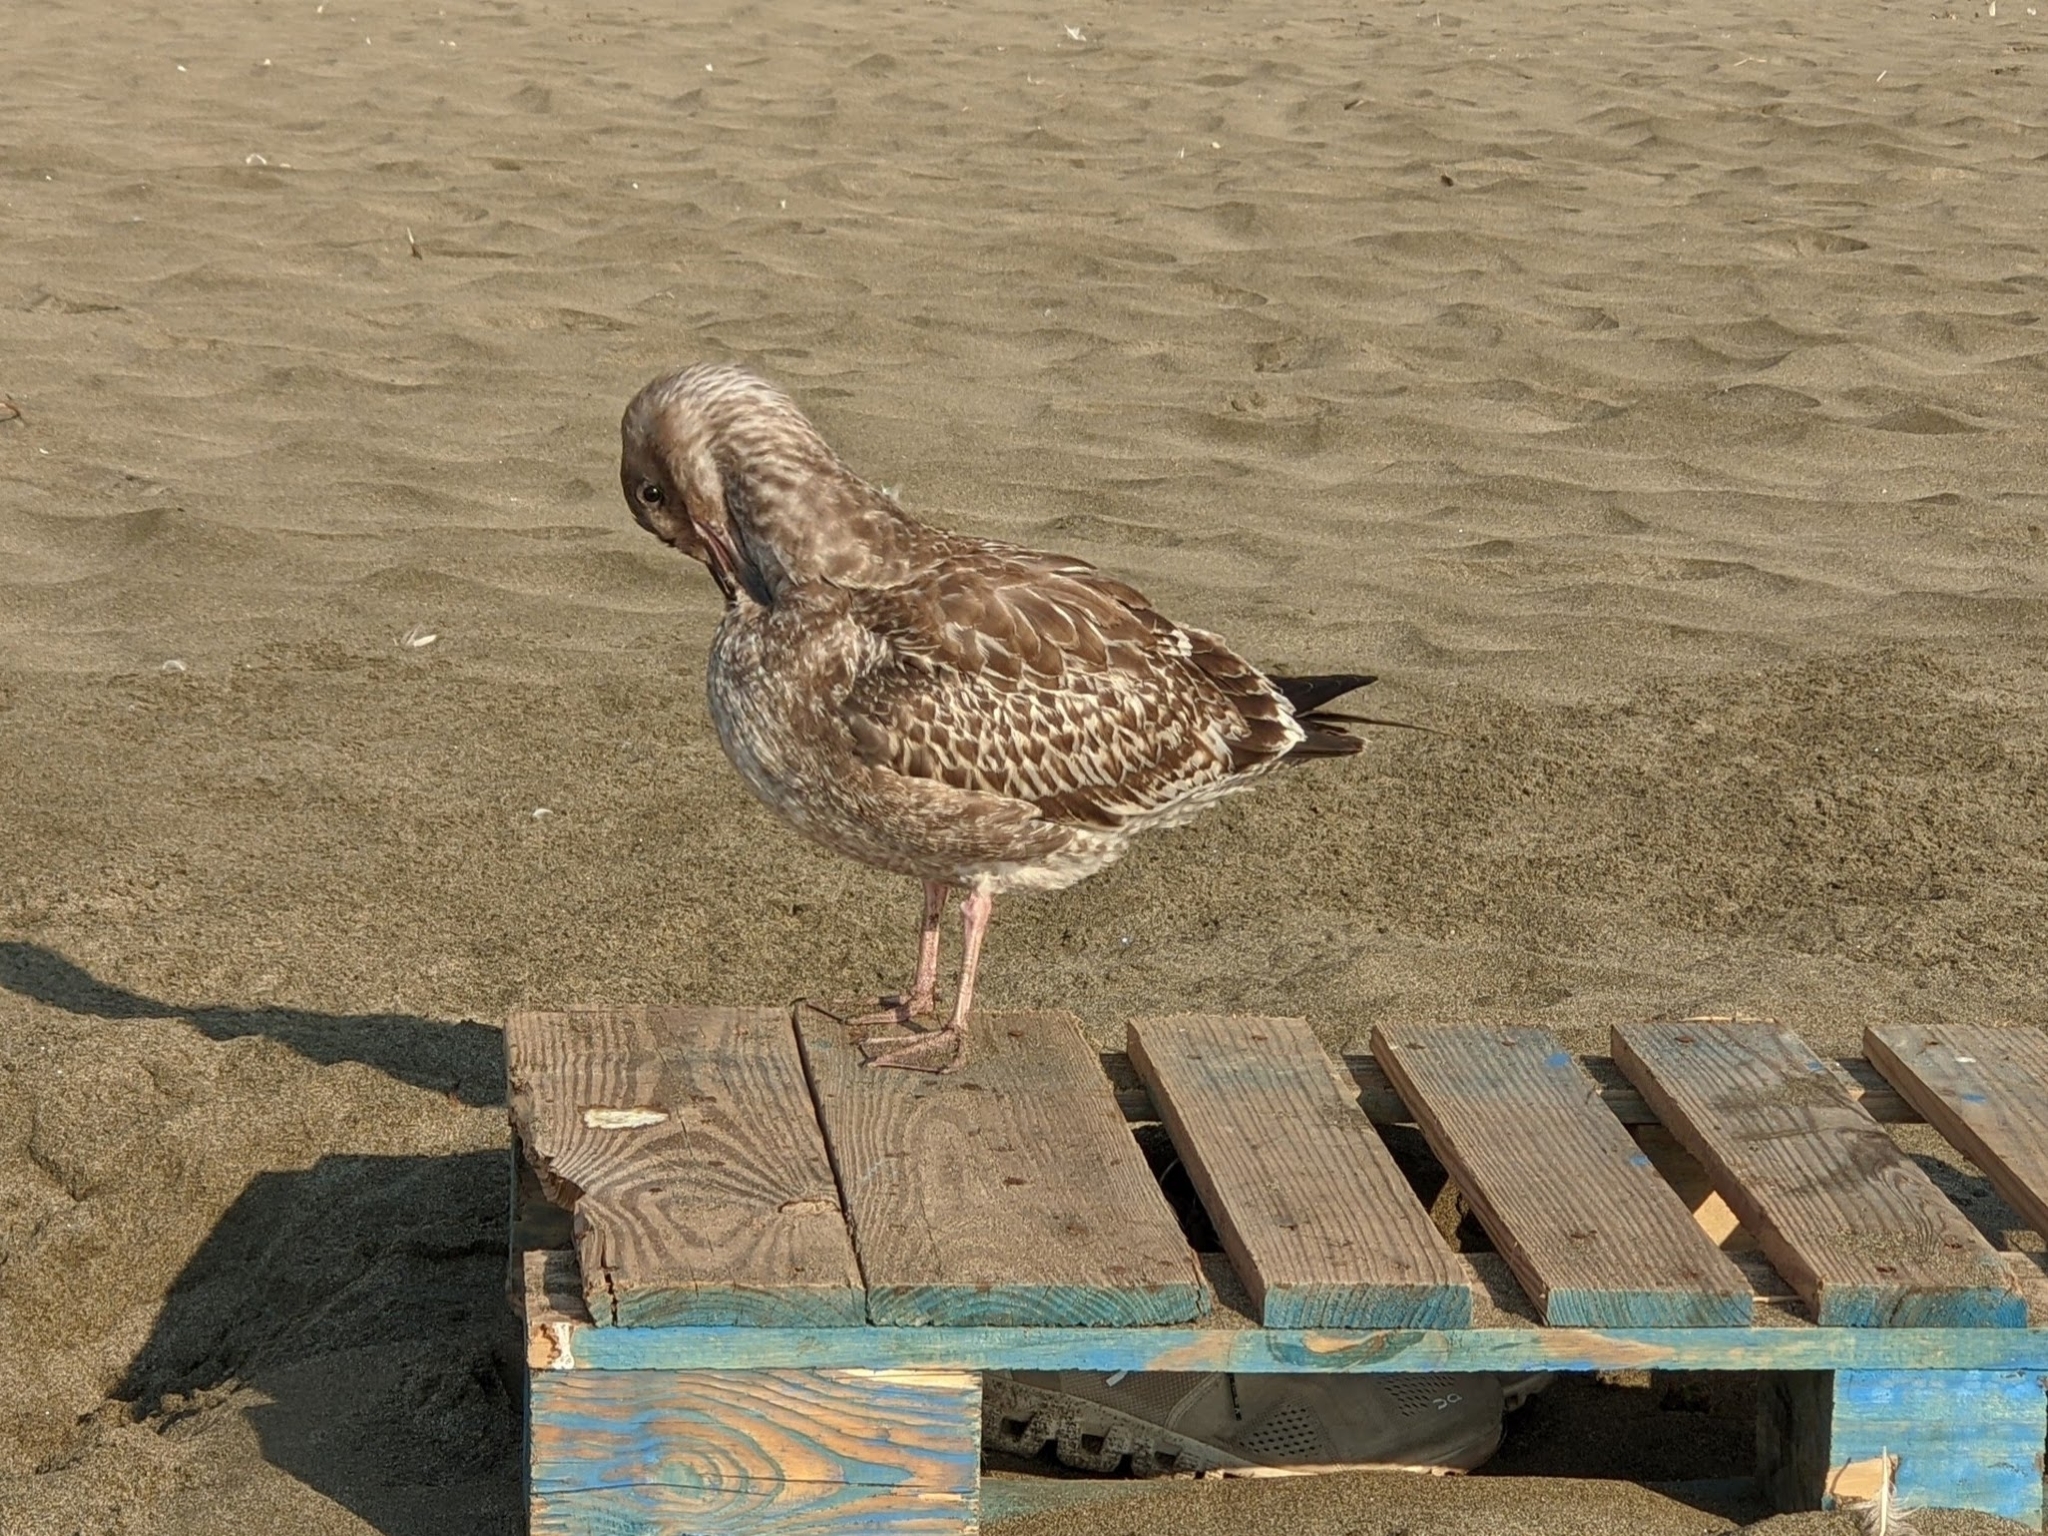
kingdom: Animalia
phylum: Chordata
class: Aves
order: Charadriiformes
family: Laridae
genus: Larus
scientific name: Larus occidentalis
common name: Western gull
